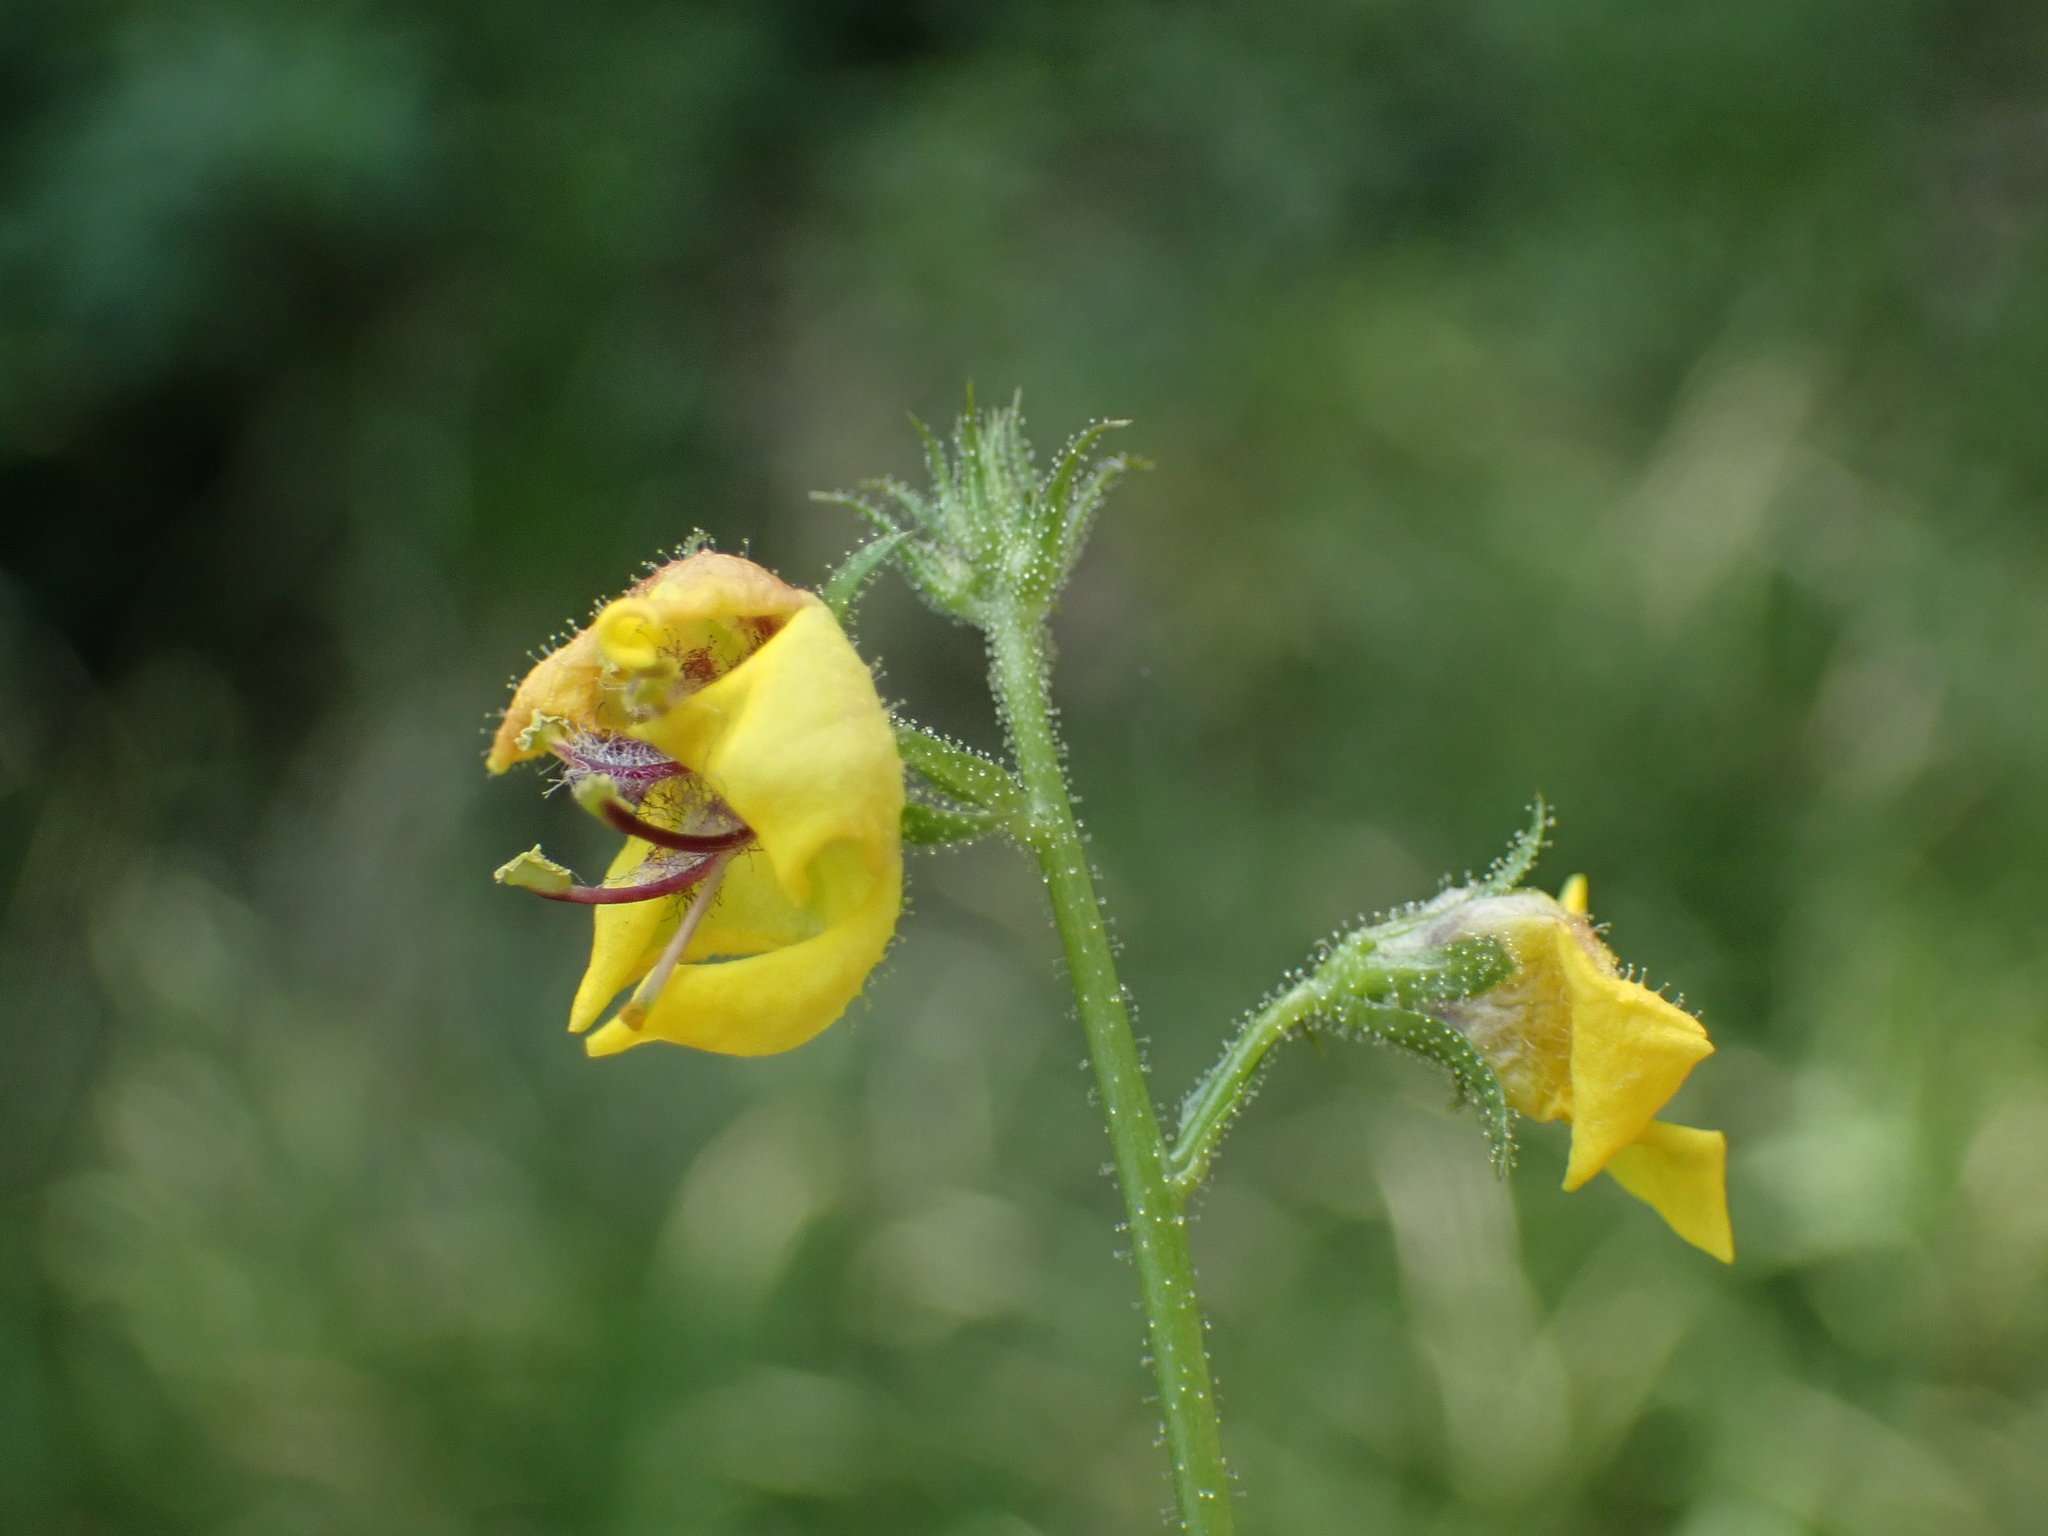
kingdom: Plantae
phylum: Tracheophyta
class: Magnoliopsida
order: Lamiales
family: Scrophulariaceae
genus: Verbascum
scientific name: Verbascum blattaria
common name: Moth mullein
